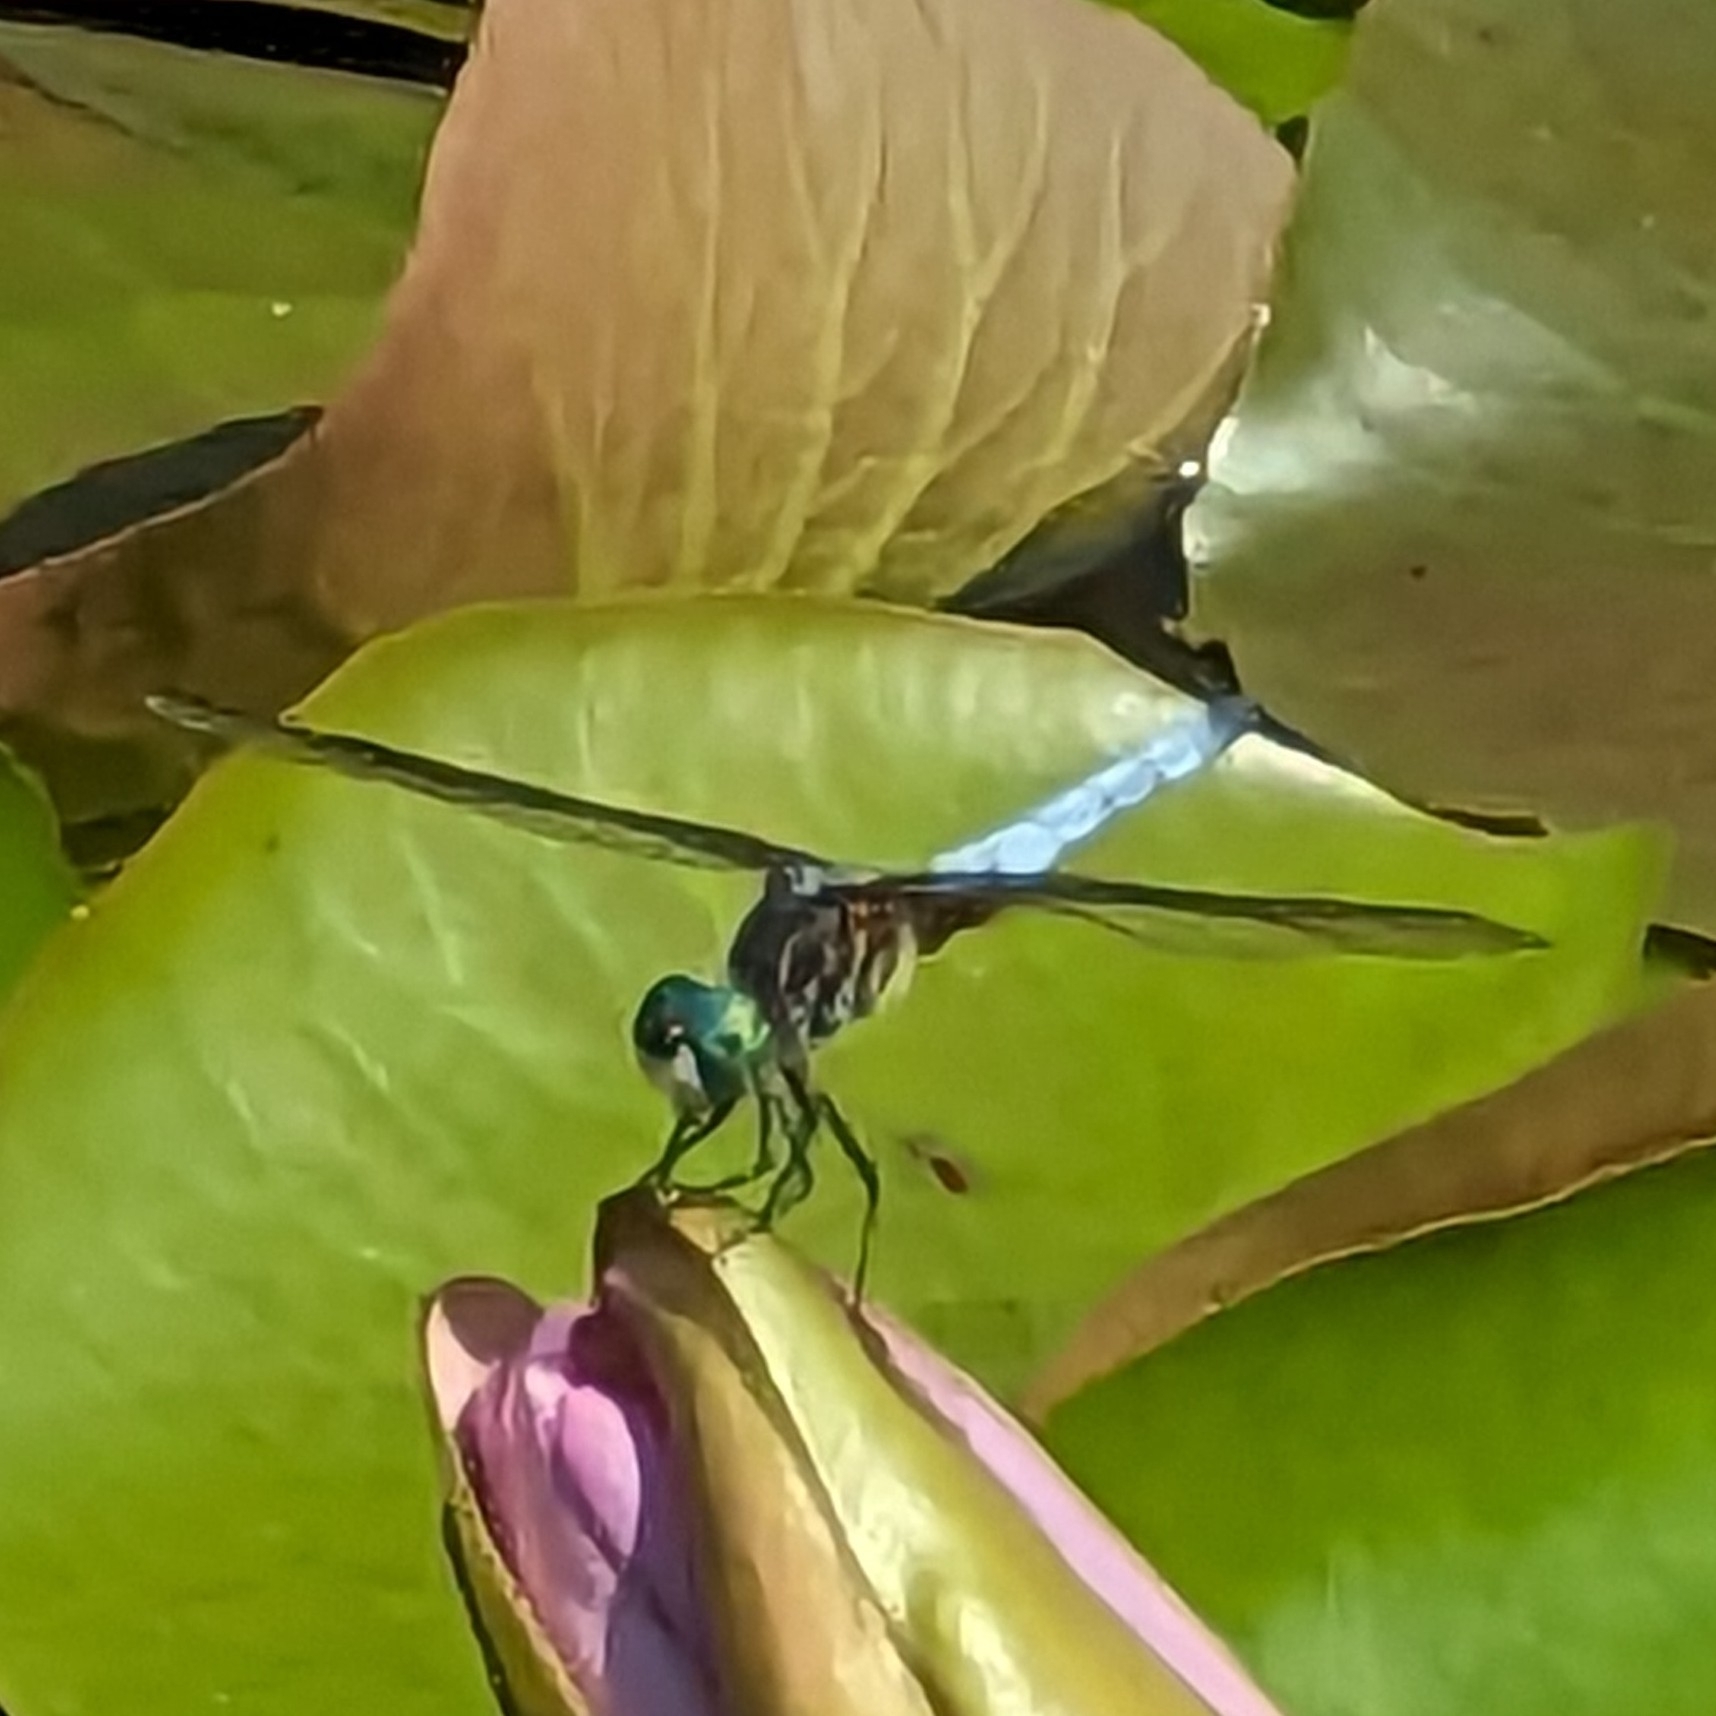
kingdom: Animalia
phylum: Arthropoda
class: Insecta
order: Odonata
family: Libellulidae
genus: Pachydiplax
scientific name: Pachydiplax longipennis
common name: Blue dasher
